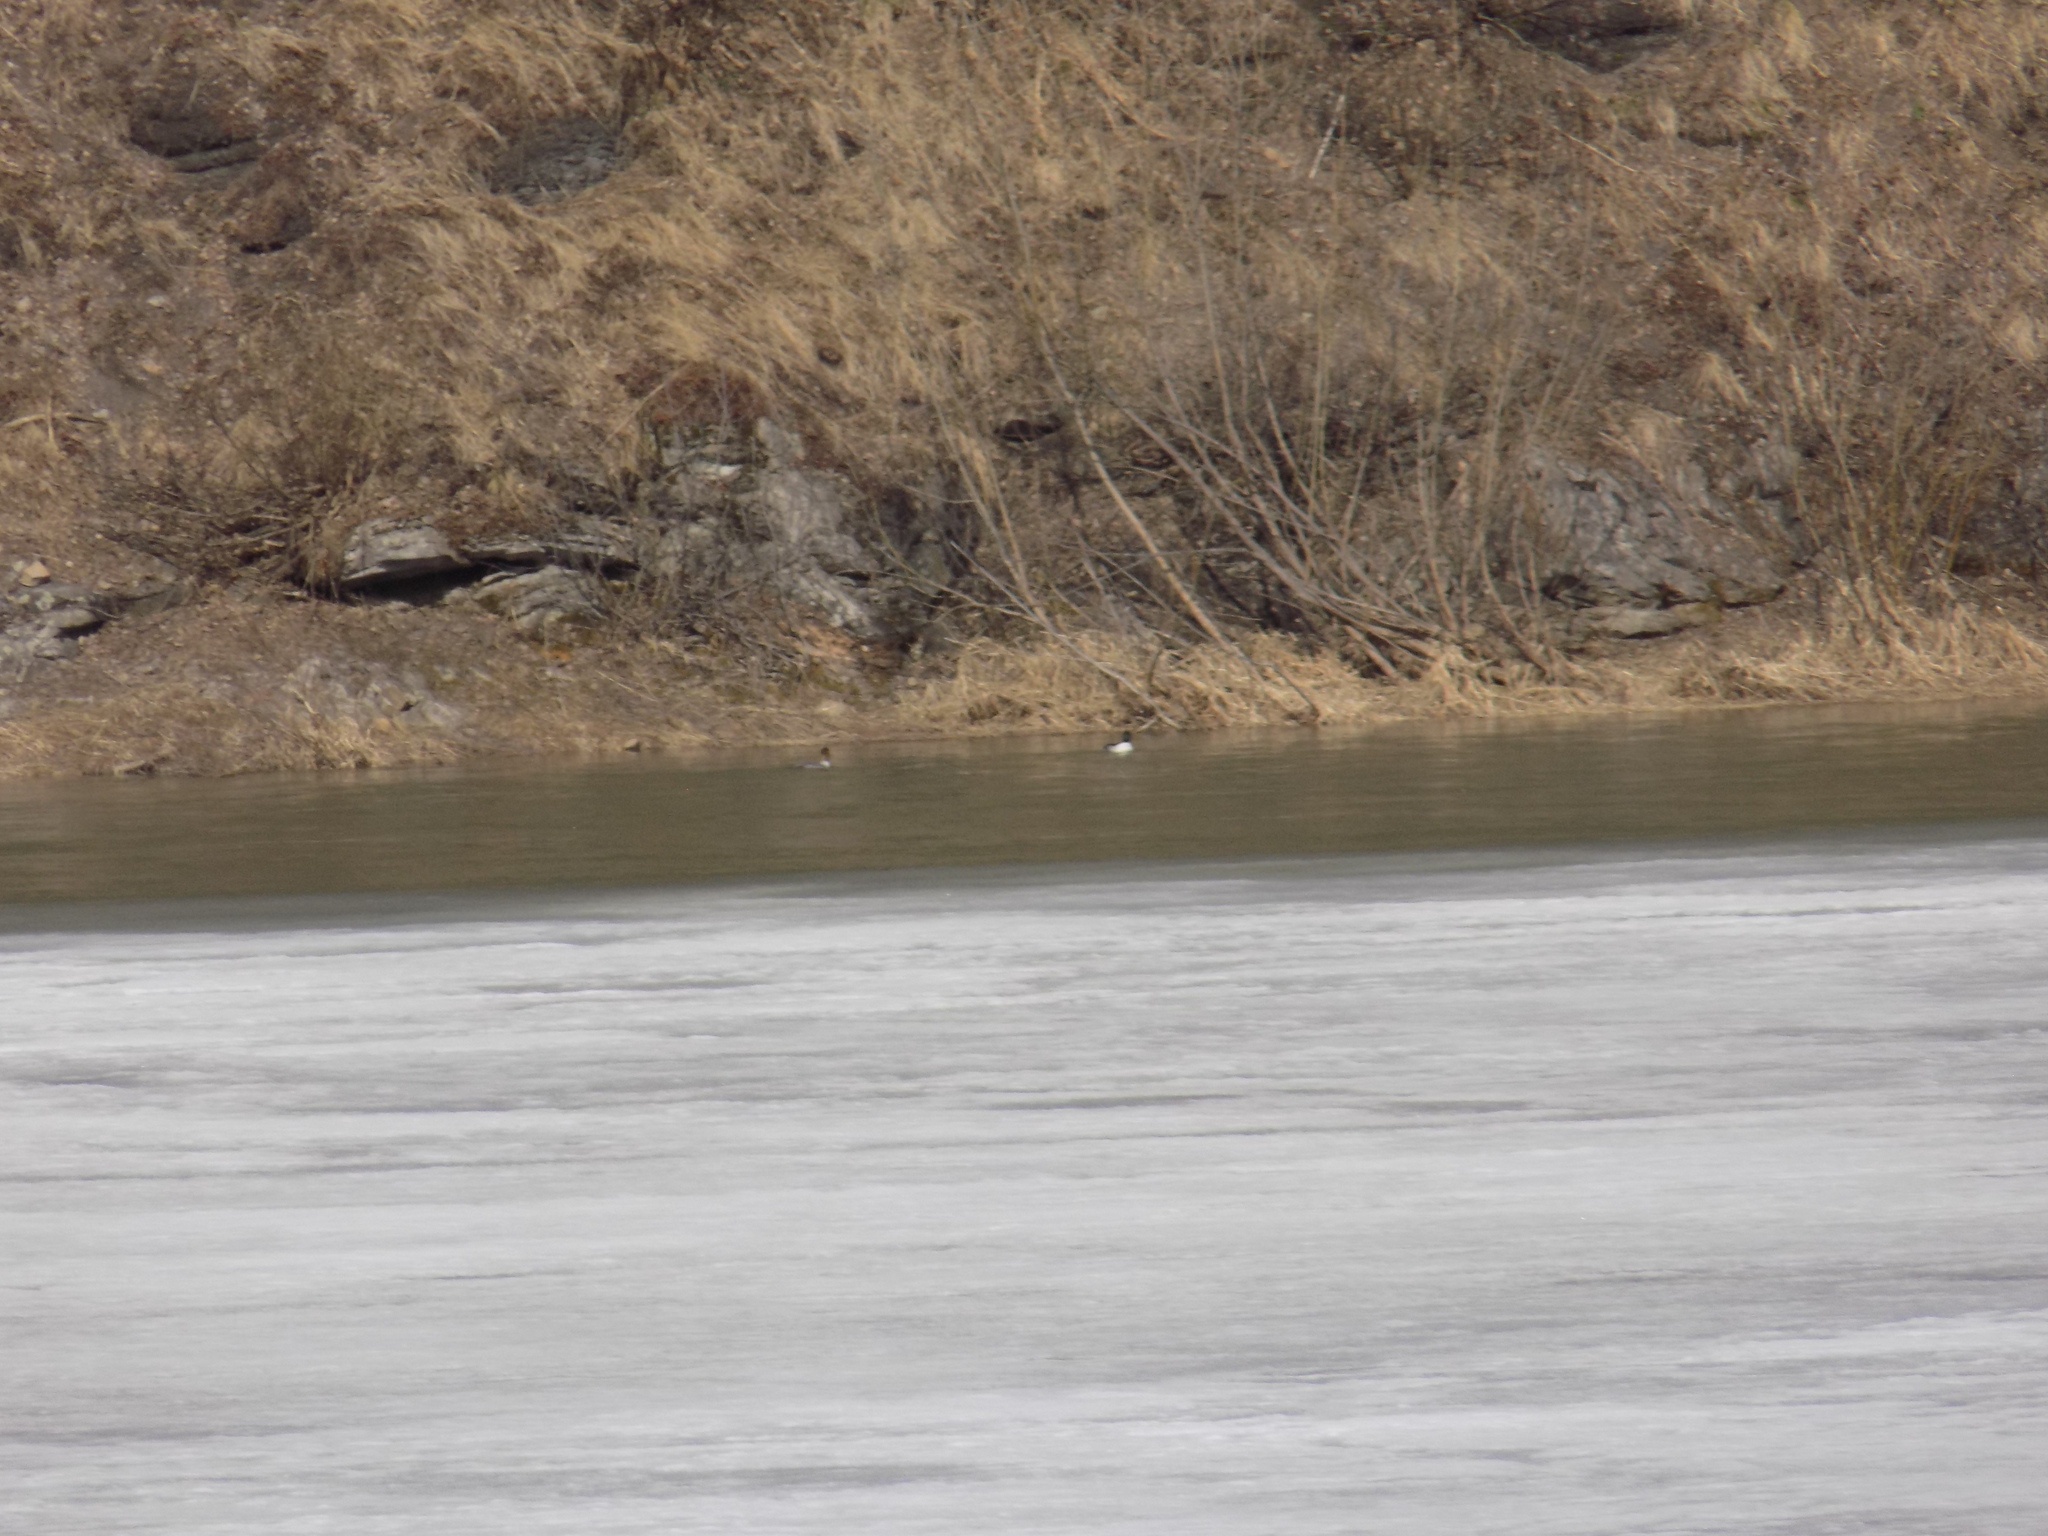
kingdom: Animalia
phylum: Chordata
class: Aves
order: Anseriformes
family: Anatidae
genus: Mergus
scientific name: Mergus merganser
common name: Common merganser
